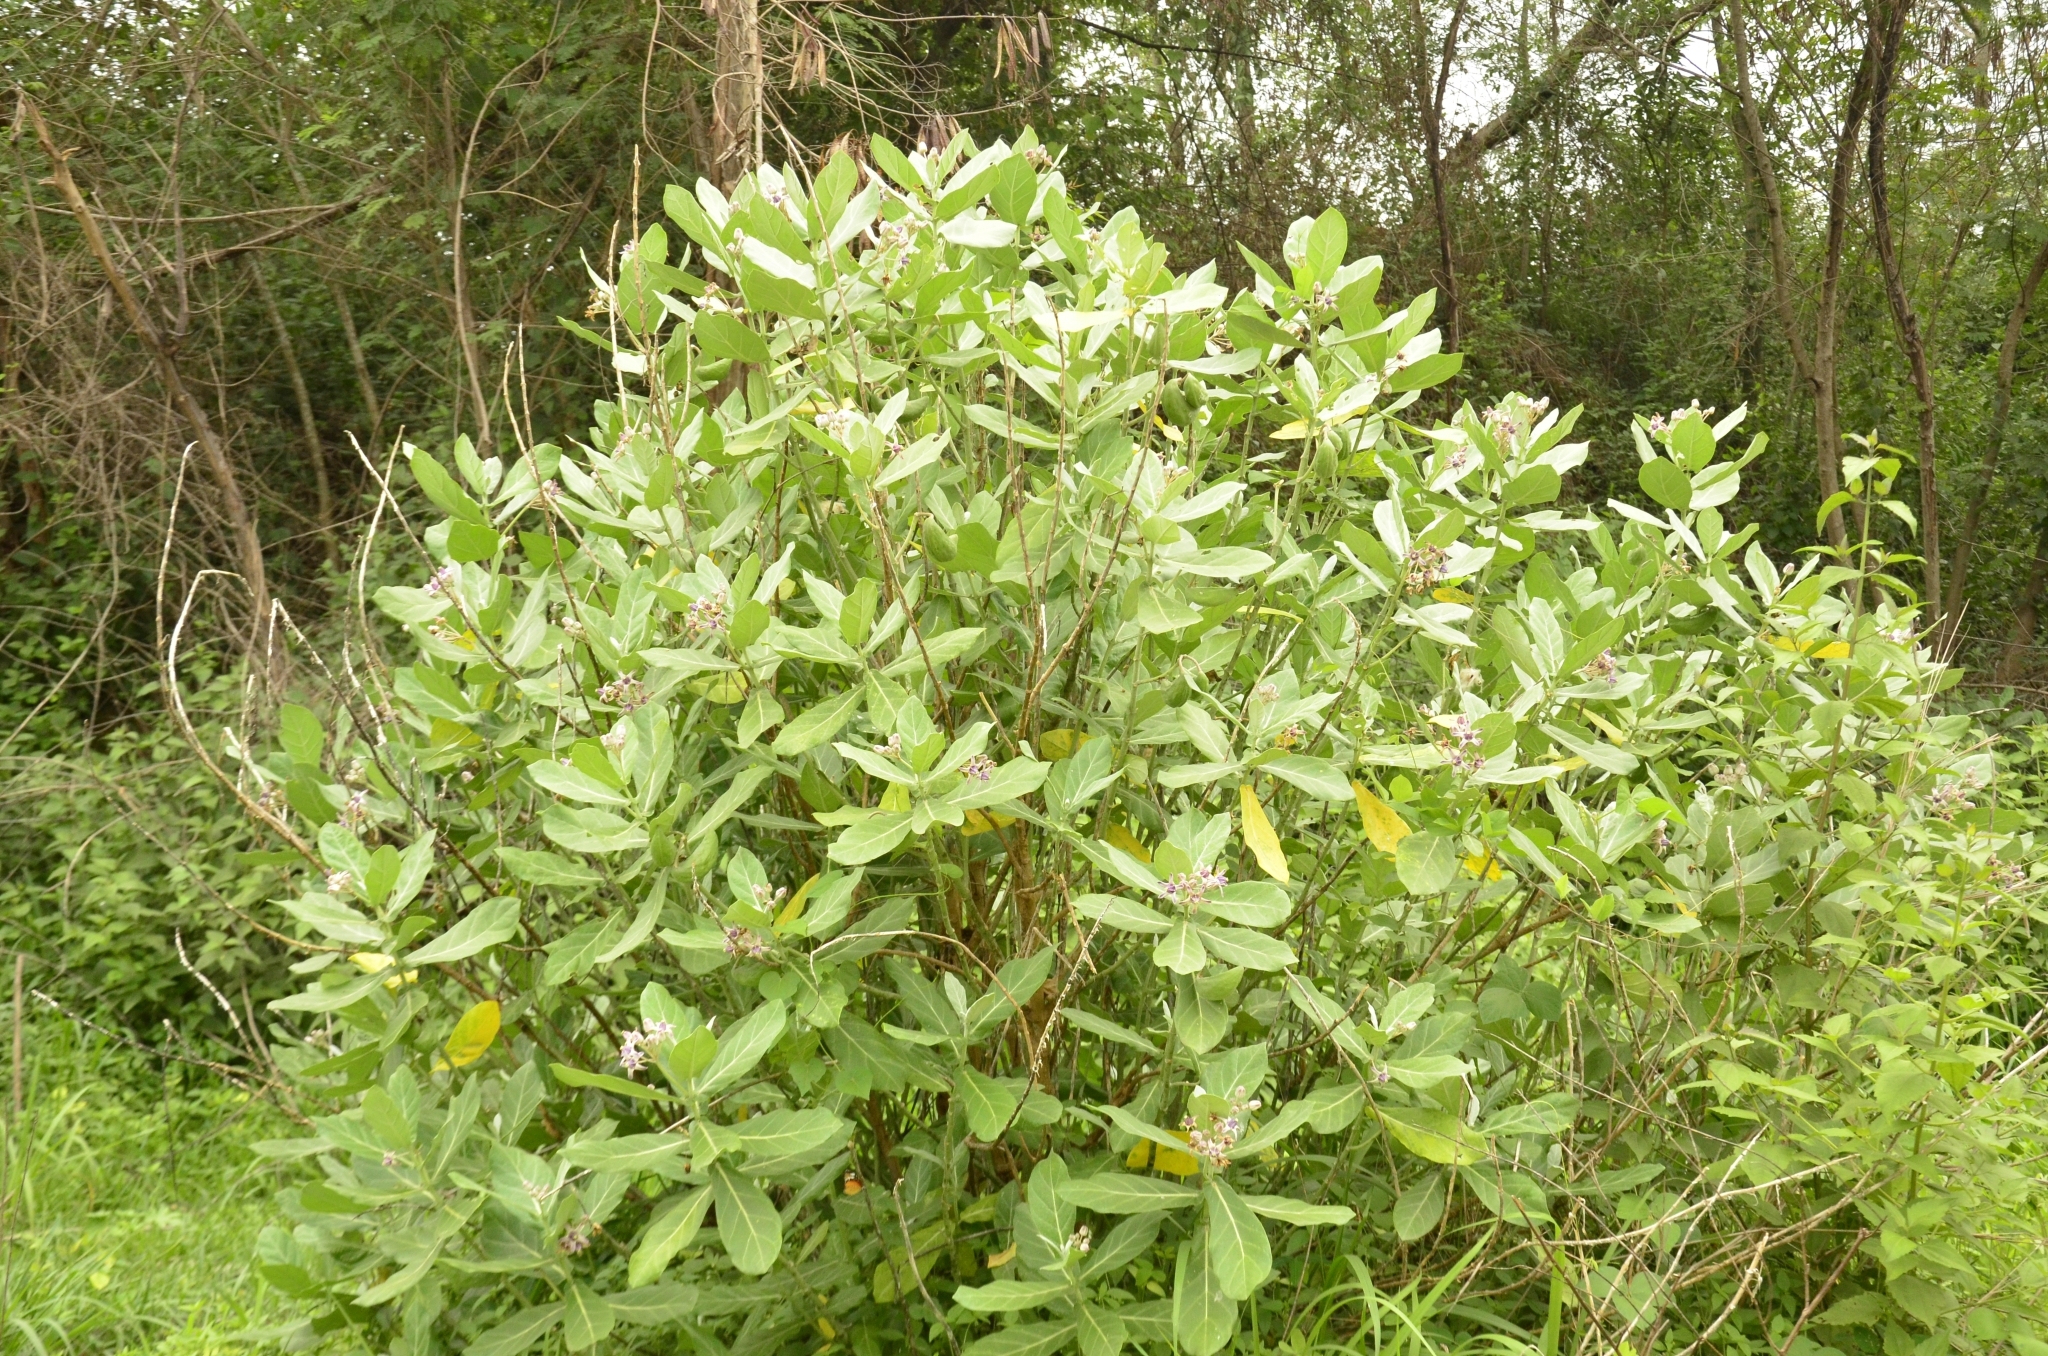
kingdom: Plantae
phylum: Tracheophyta
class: Magnoliopsida
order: Gentianales
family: Apocynaceae
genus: Calotropis
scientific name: Calotropis gigantea
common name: Crown flower
